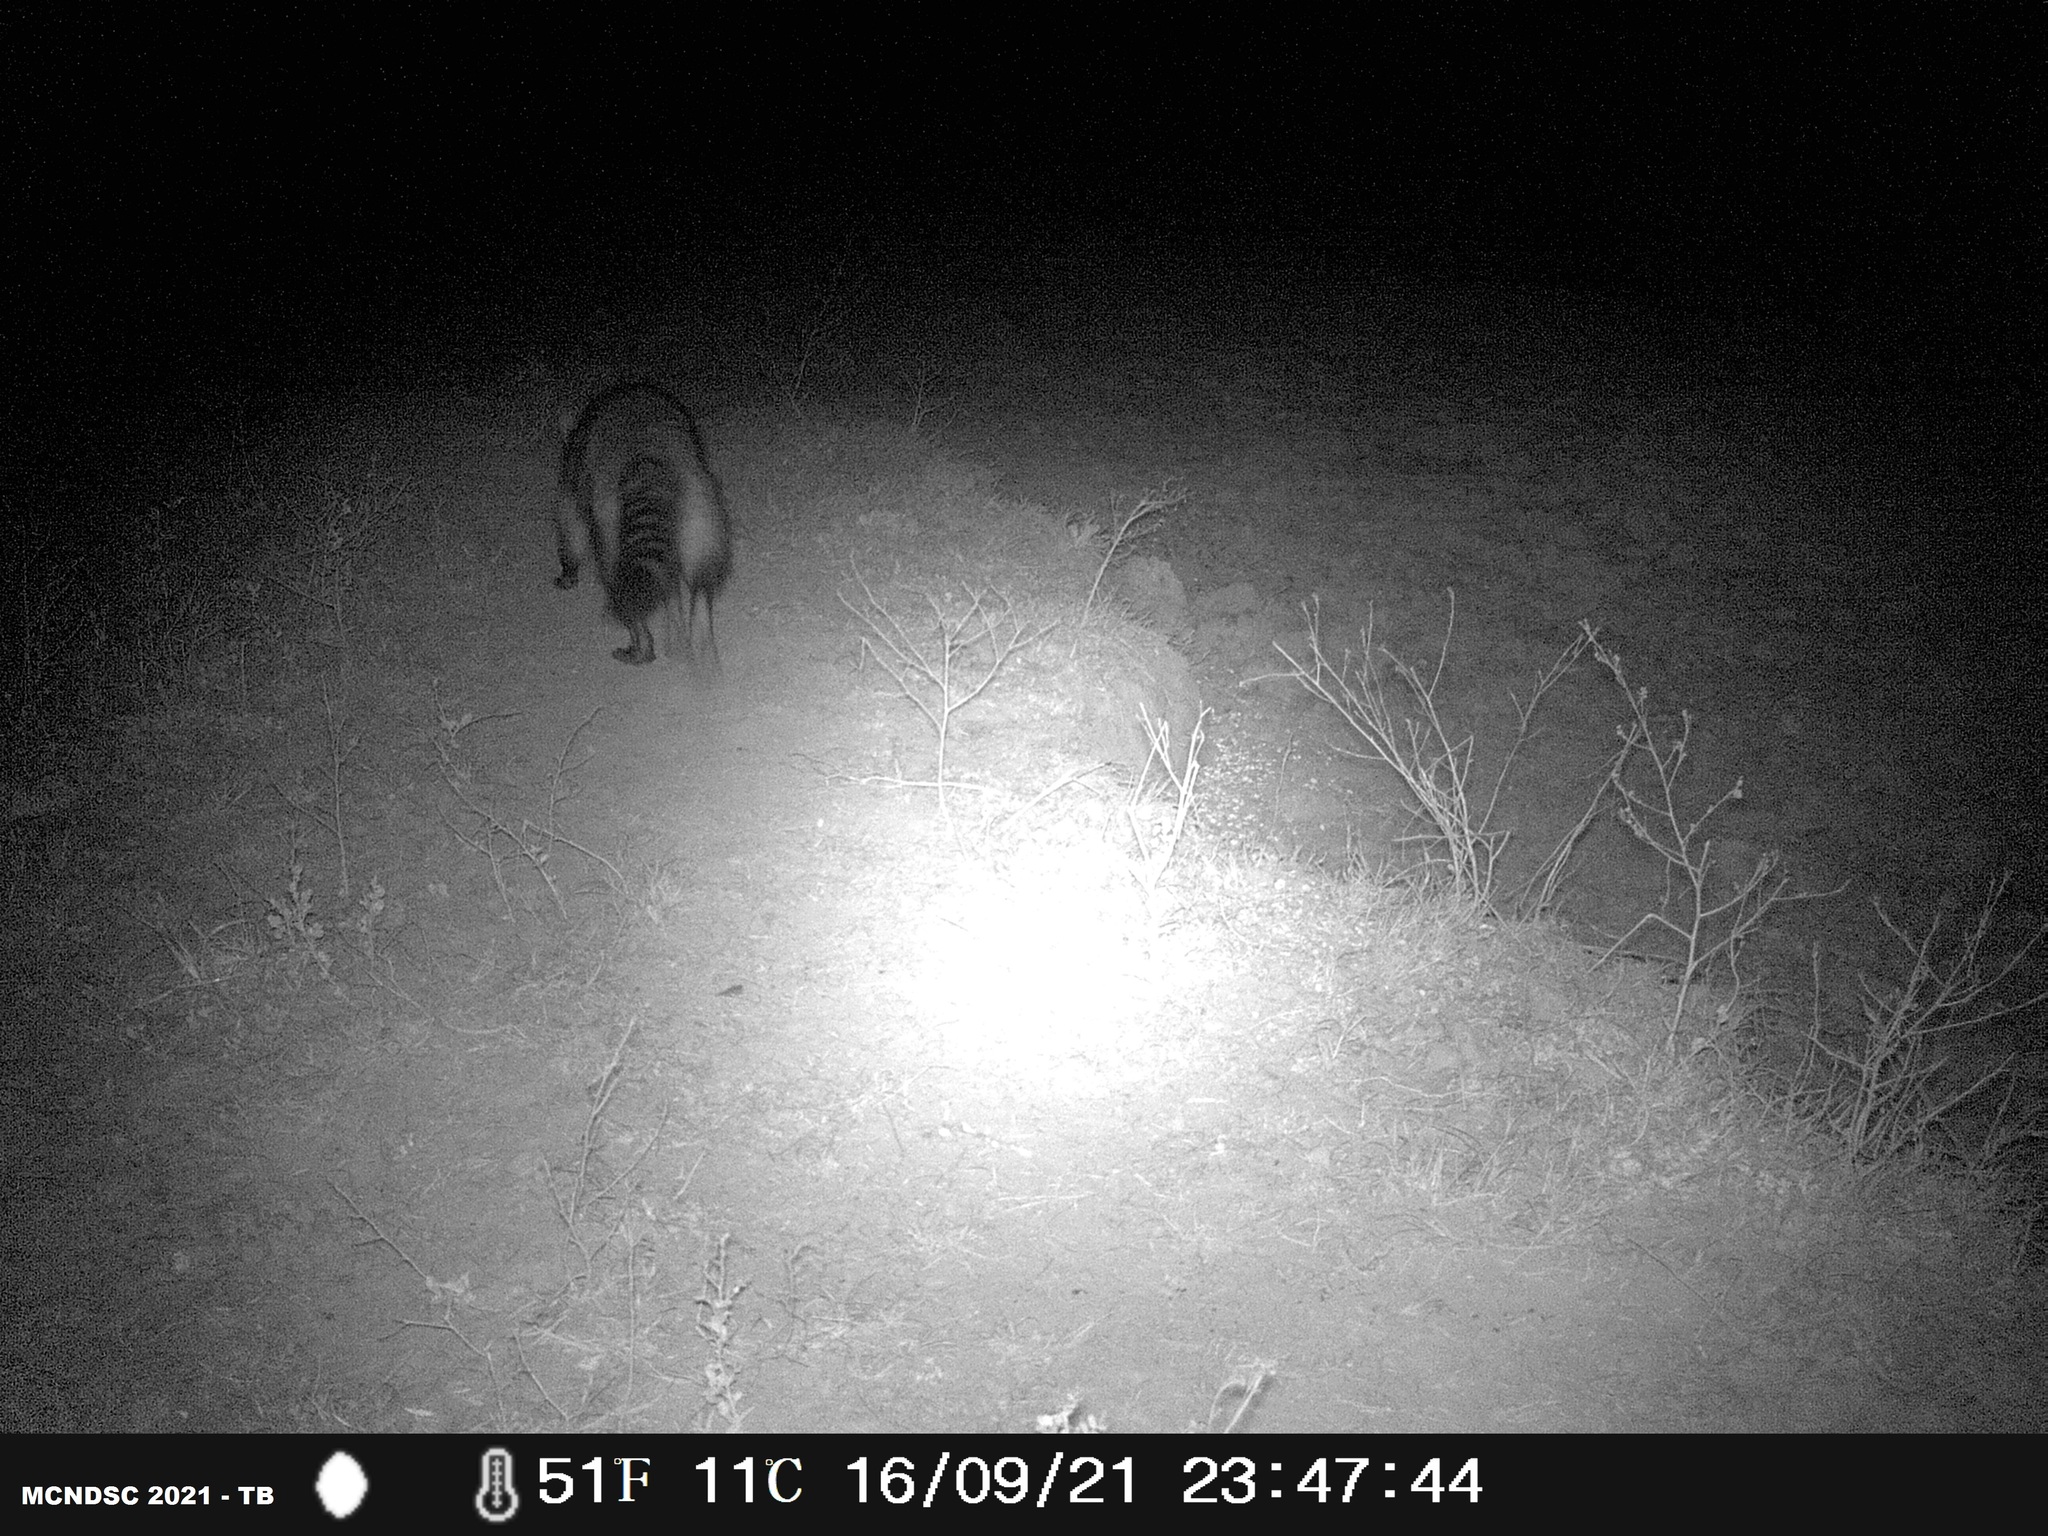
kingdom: Animalia
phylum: Chordata
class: Mammalia
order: Carnivora
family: Procyonidae
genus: Procyon
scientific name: Procyon cancrivorus
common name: Crab-eating raccoon
